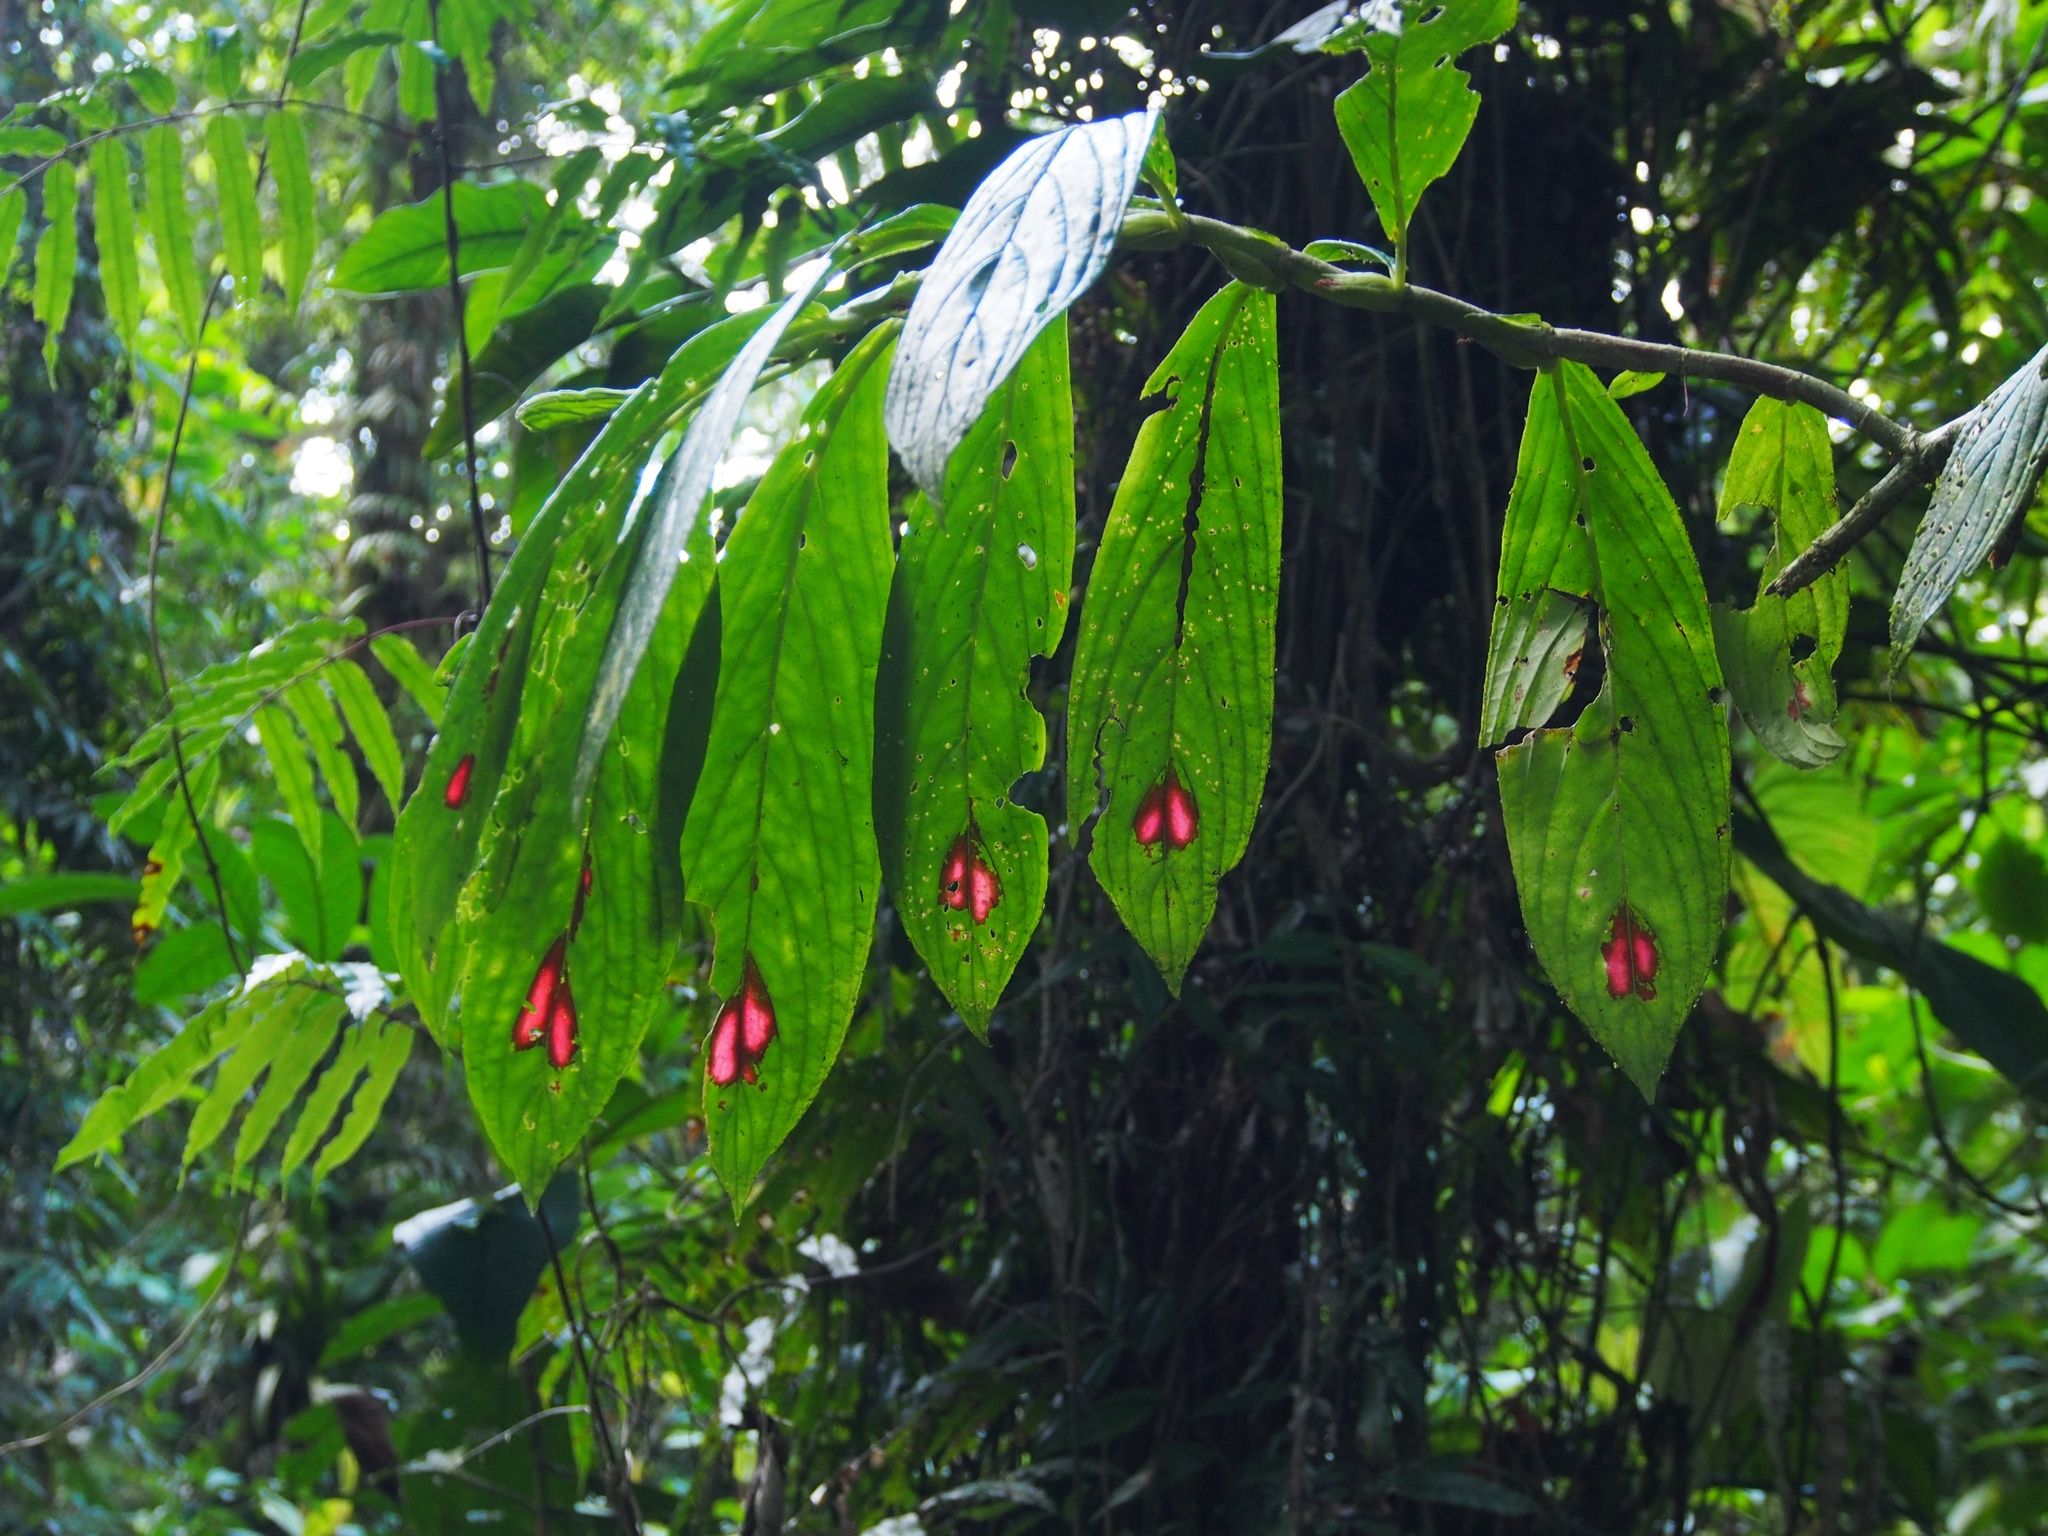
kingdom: Plantae
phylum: Tracheophyta
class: Magnoliopsida
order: Lamiales
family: Gesneriaceae
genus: Columnea
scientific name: Columnea consanguinea
